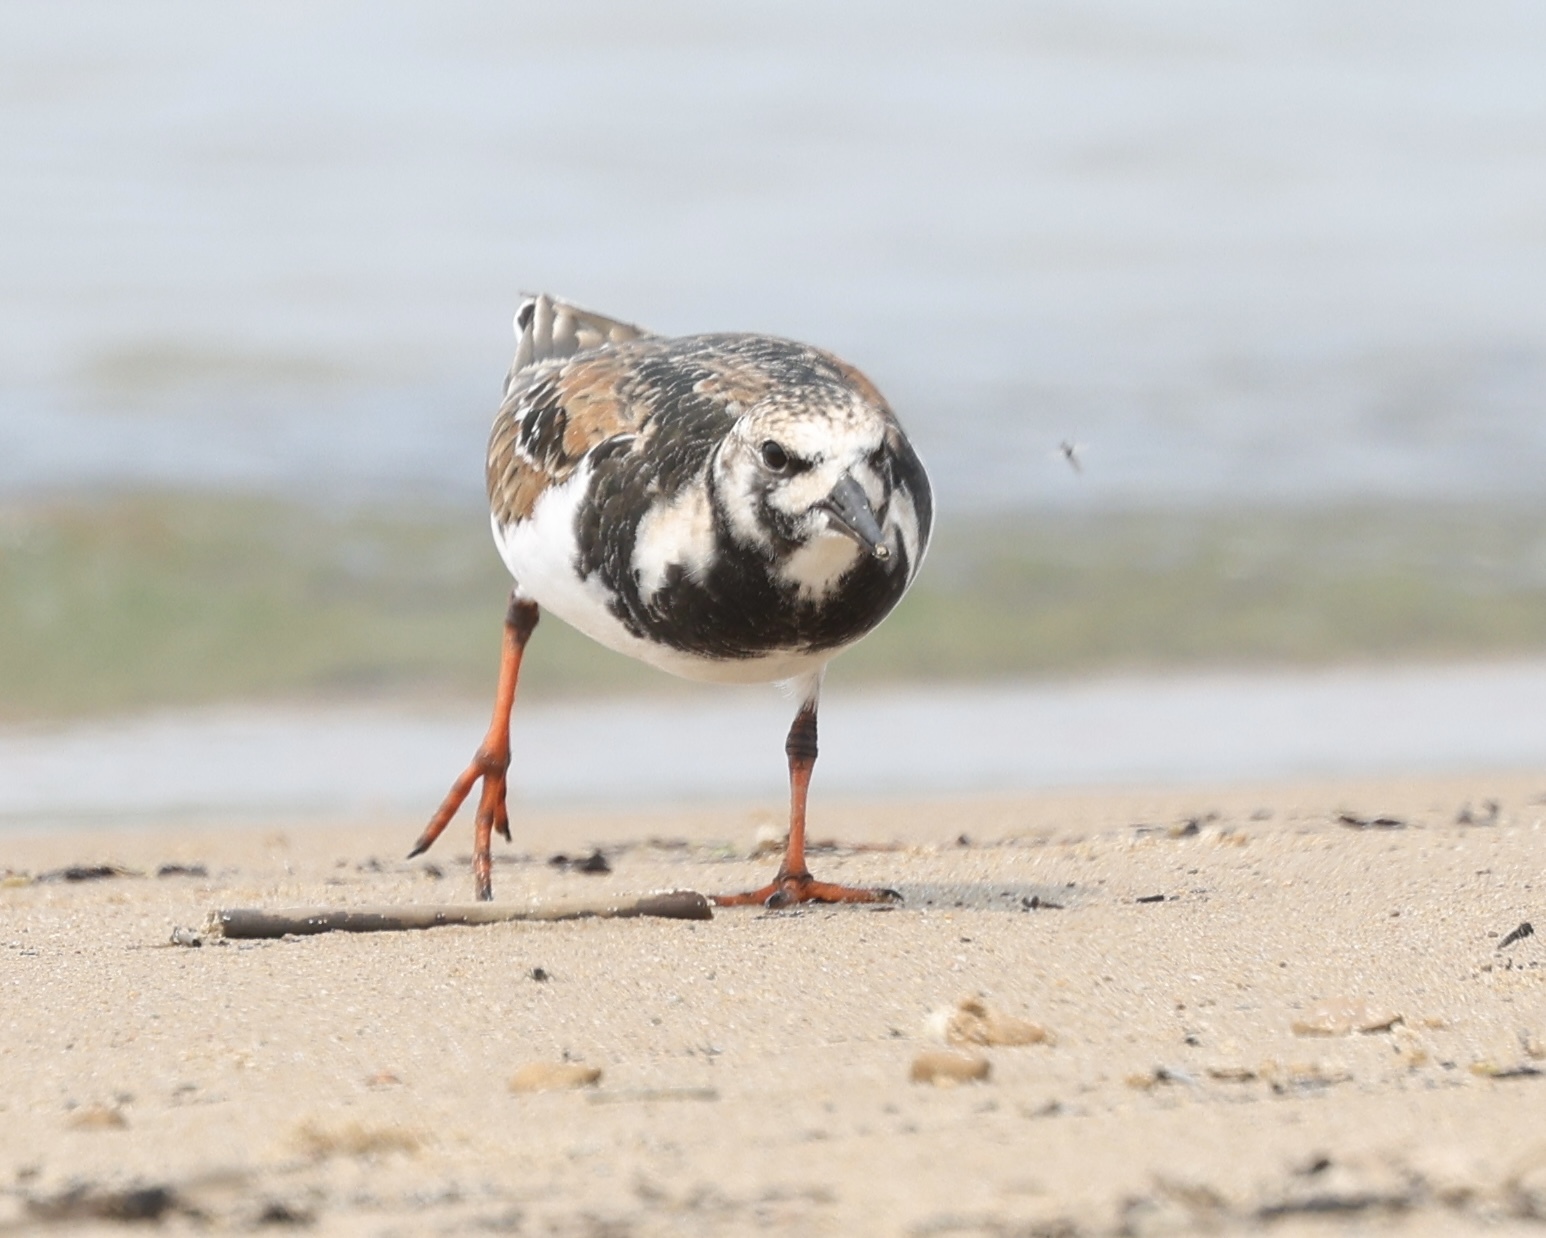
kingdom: Animalia
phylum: Chordata
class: Aves
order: Charadriiformes
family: Scolopacidae
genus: Arenaria
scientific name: Arenaria interpres
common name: Ruddy turnstone
